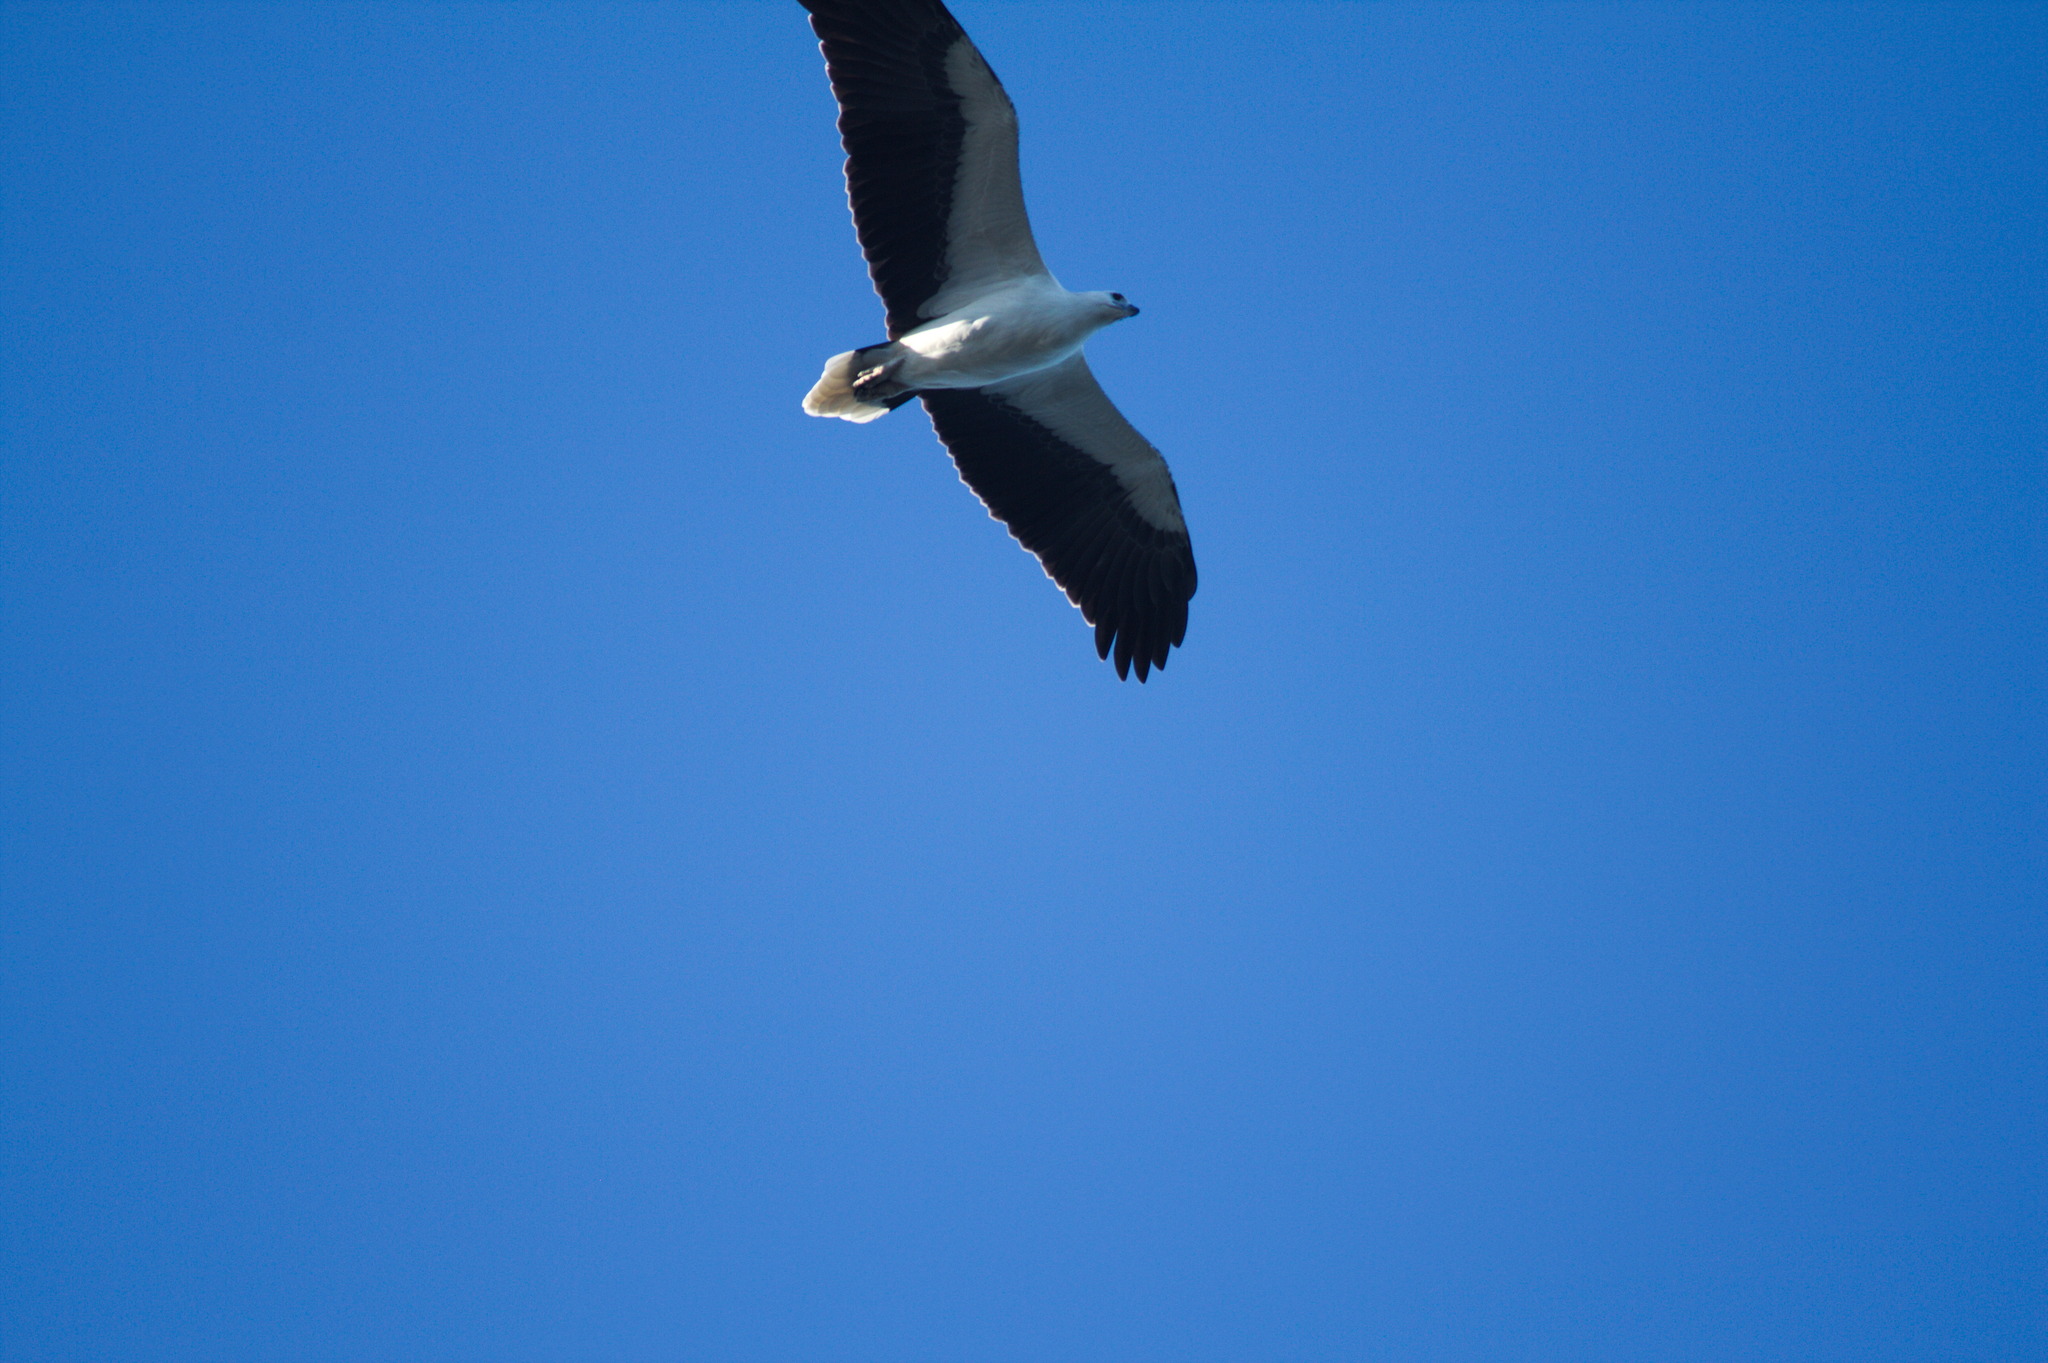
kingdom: Animalia
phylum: Chordata
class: Aves
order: Accipitriformes
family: Accipitridae
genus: Haliaeetus
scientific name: Haliaeetus leucogaster
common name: White-bellied sea eagle
